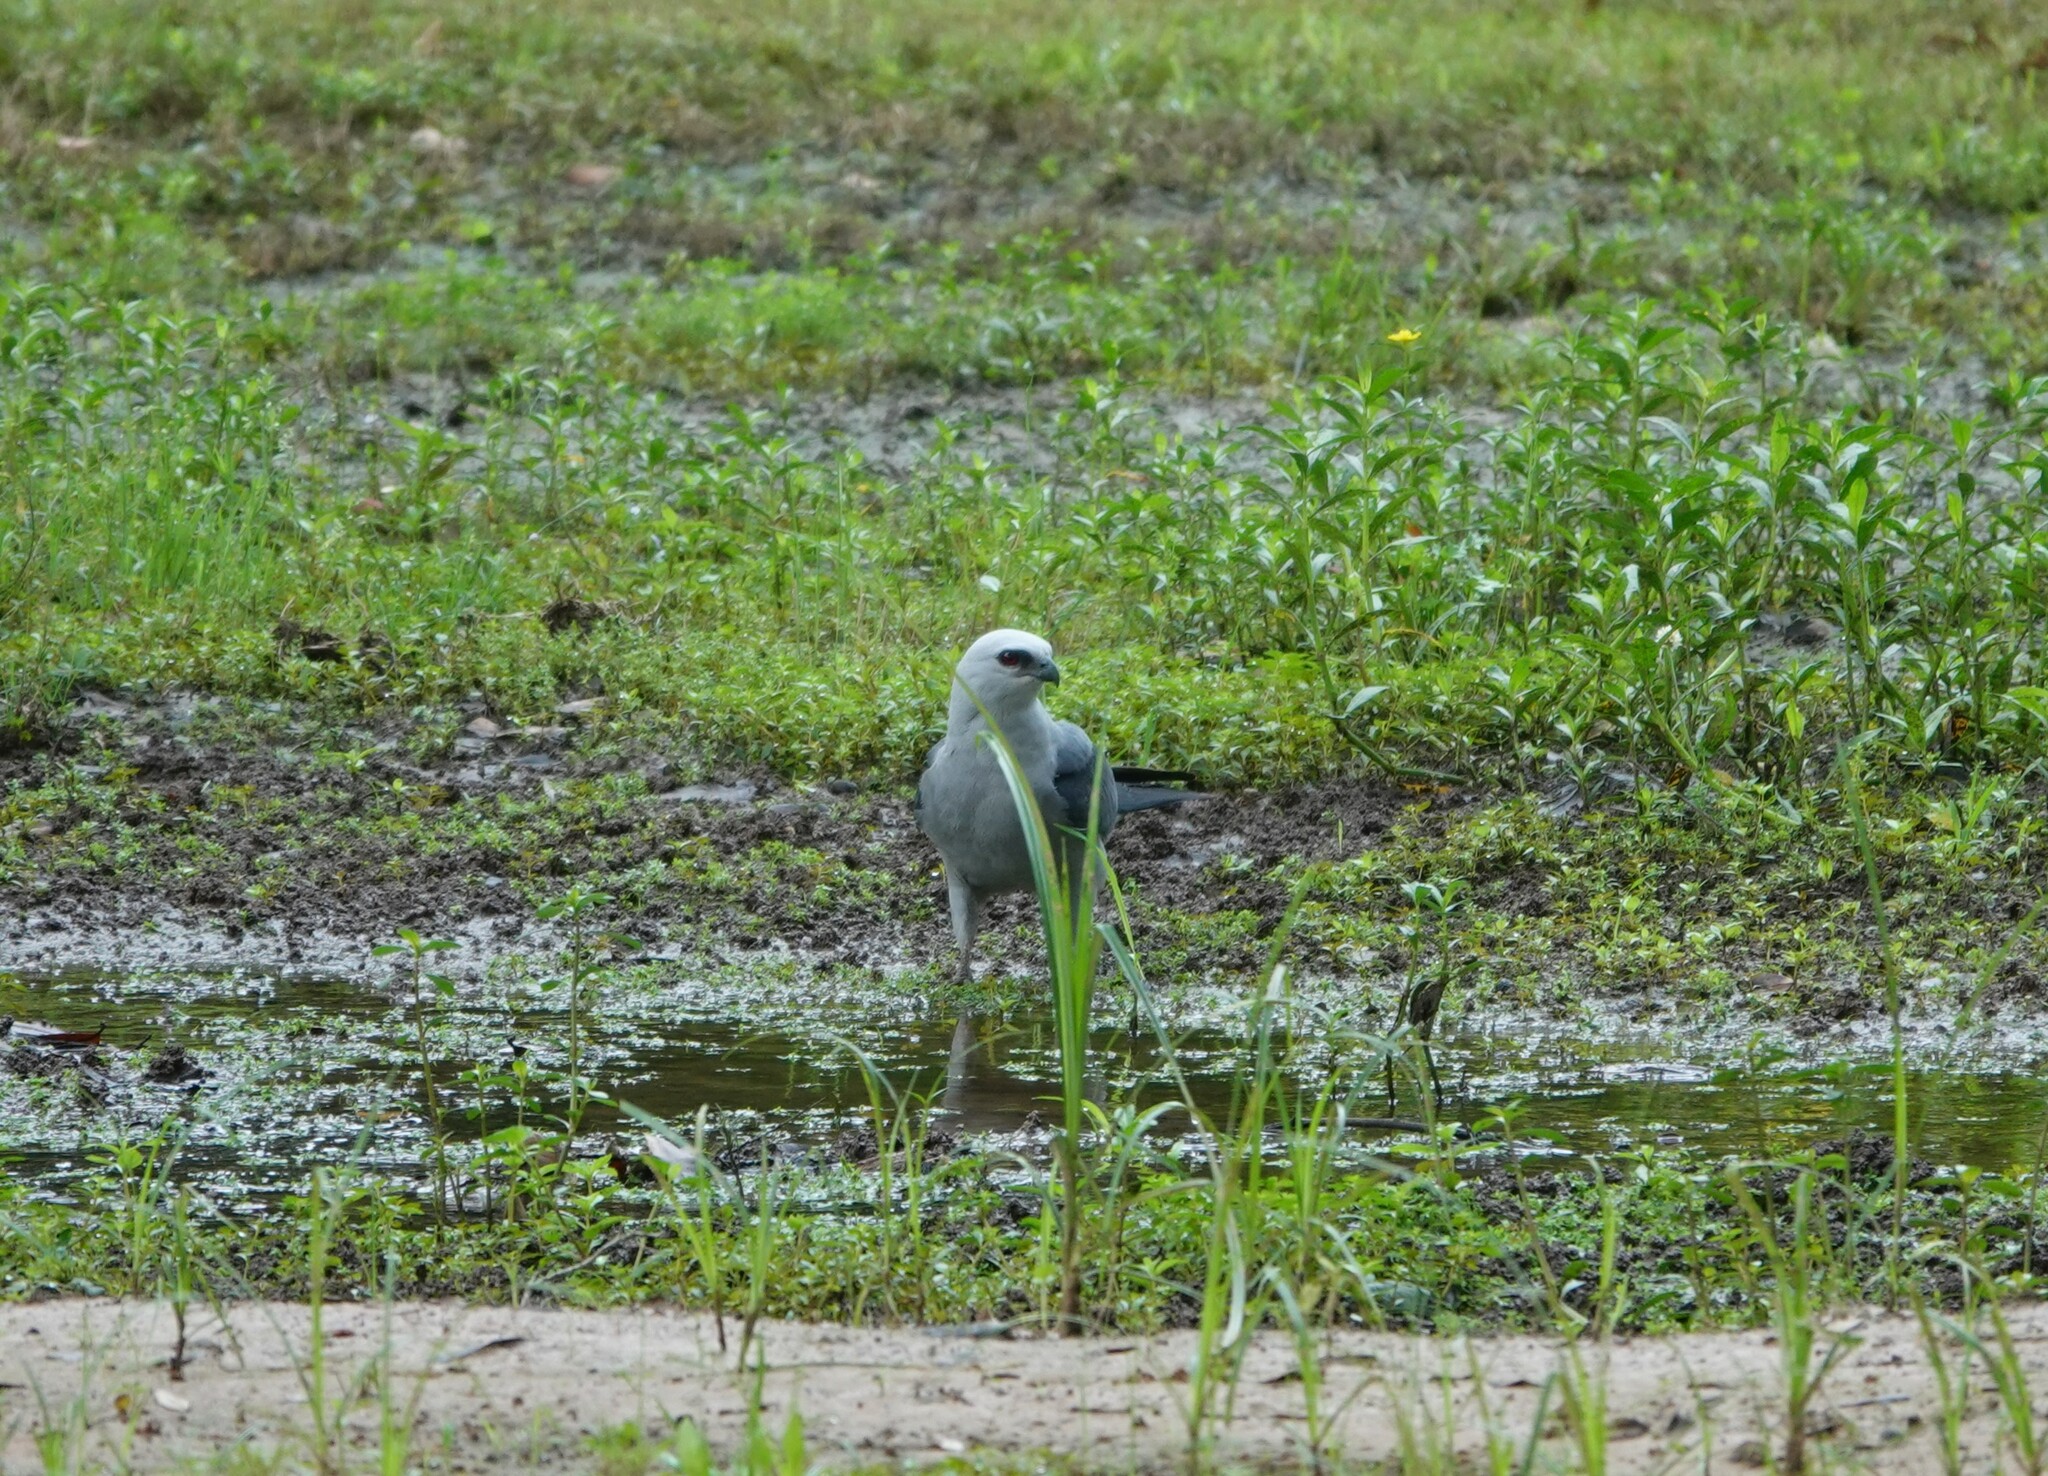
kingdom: Animalia
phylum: Chordata
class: Aves
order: Accipitriformes
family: Accipitridae
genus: Ictinia
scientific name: Ictinia mississippiensis
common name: Mississippi kite
